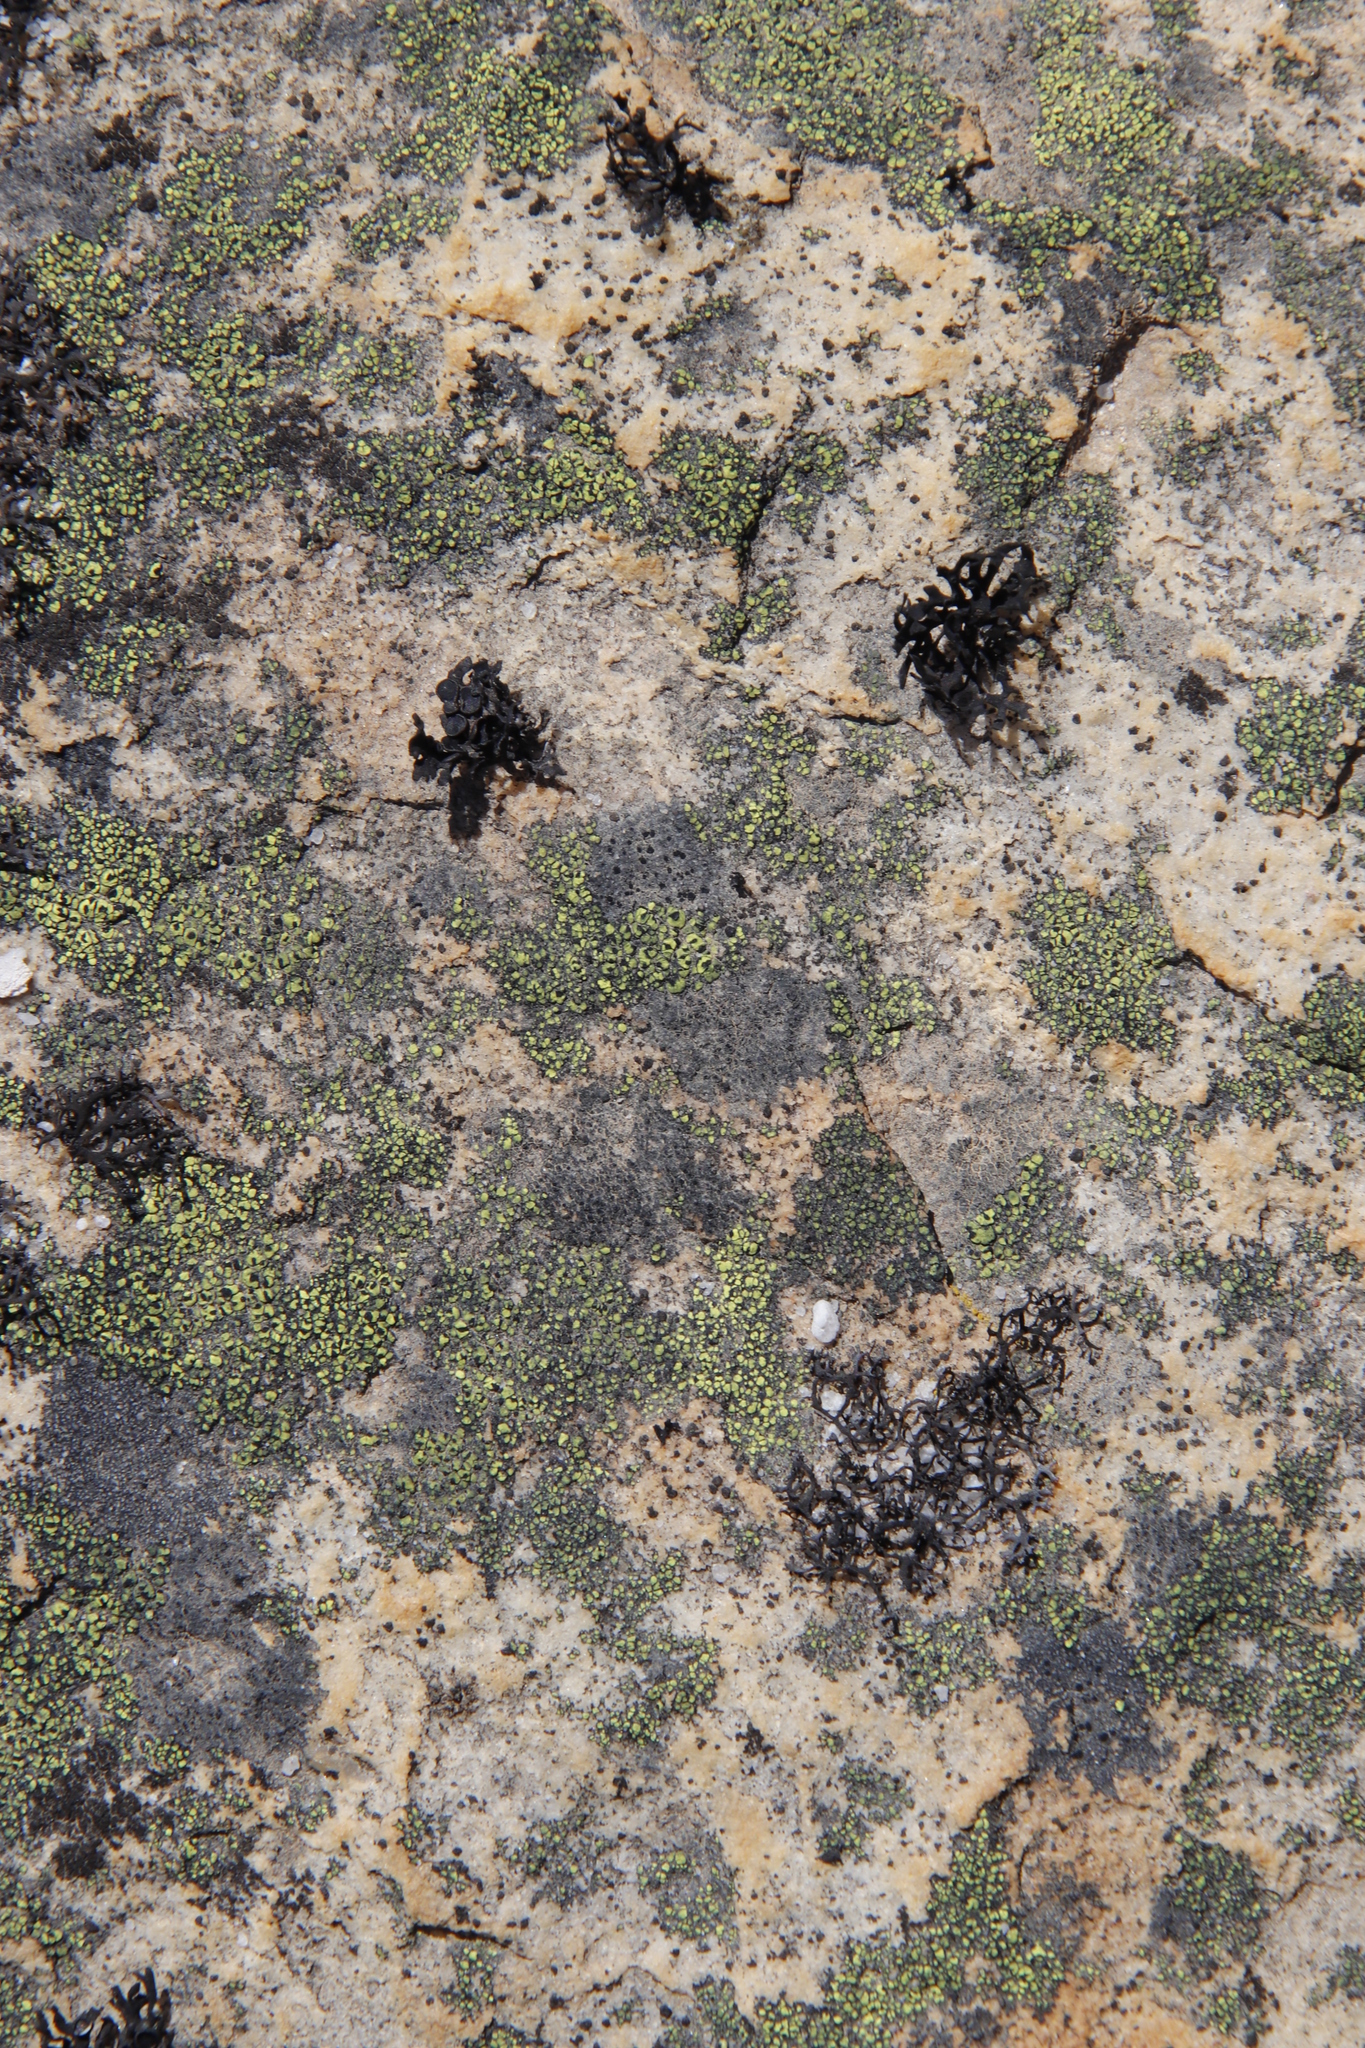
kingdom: Fungi
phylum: Ascomycota
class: Lecanoromycetes
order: Rhizocarpales
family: Rhizocarpaceae
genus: Rhizocarpon
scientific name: Rhizocarpon lecanorinum
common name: Crescent map lichen
